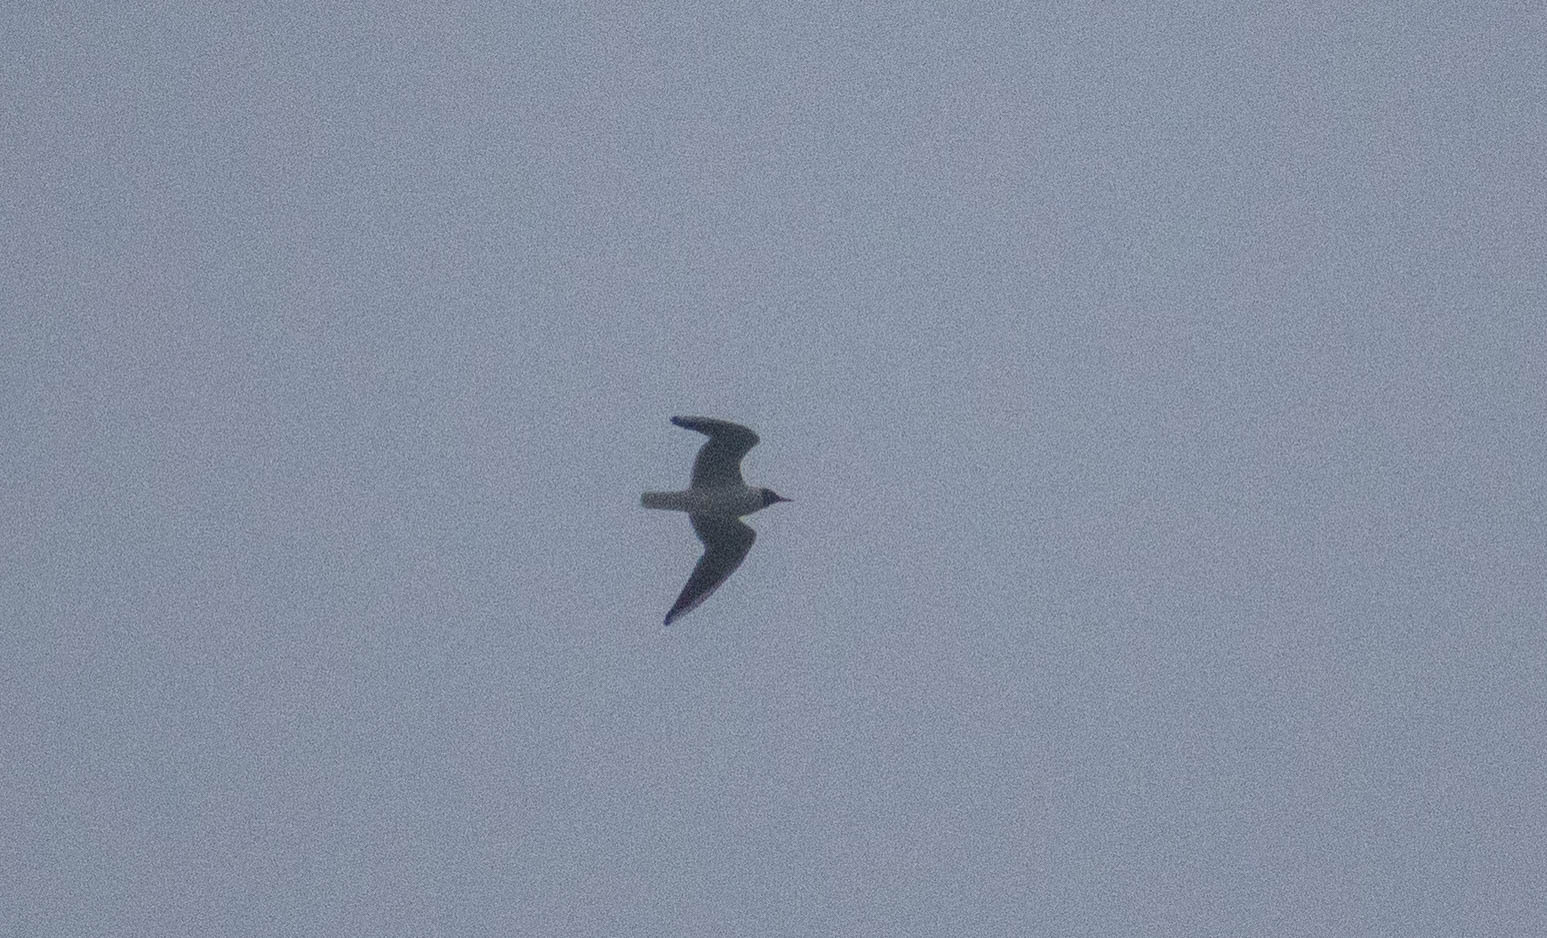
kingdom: Animalia
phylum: Chordata
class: Aves
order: Charadriiformes
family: Laridae
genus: Chroicocephalus
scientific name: Chroicocephalus ridibundus
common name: Black-headed gull
